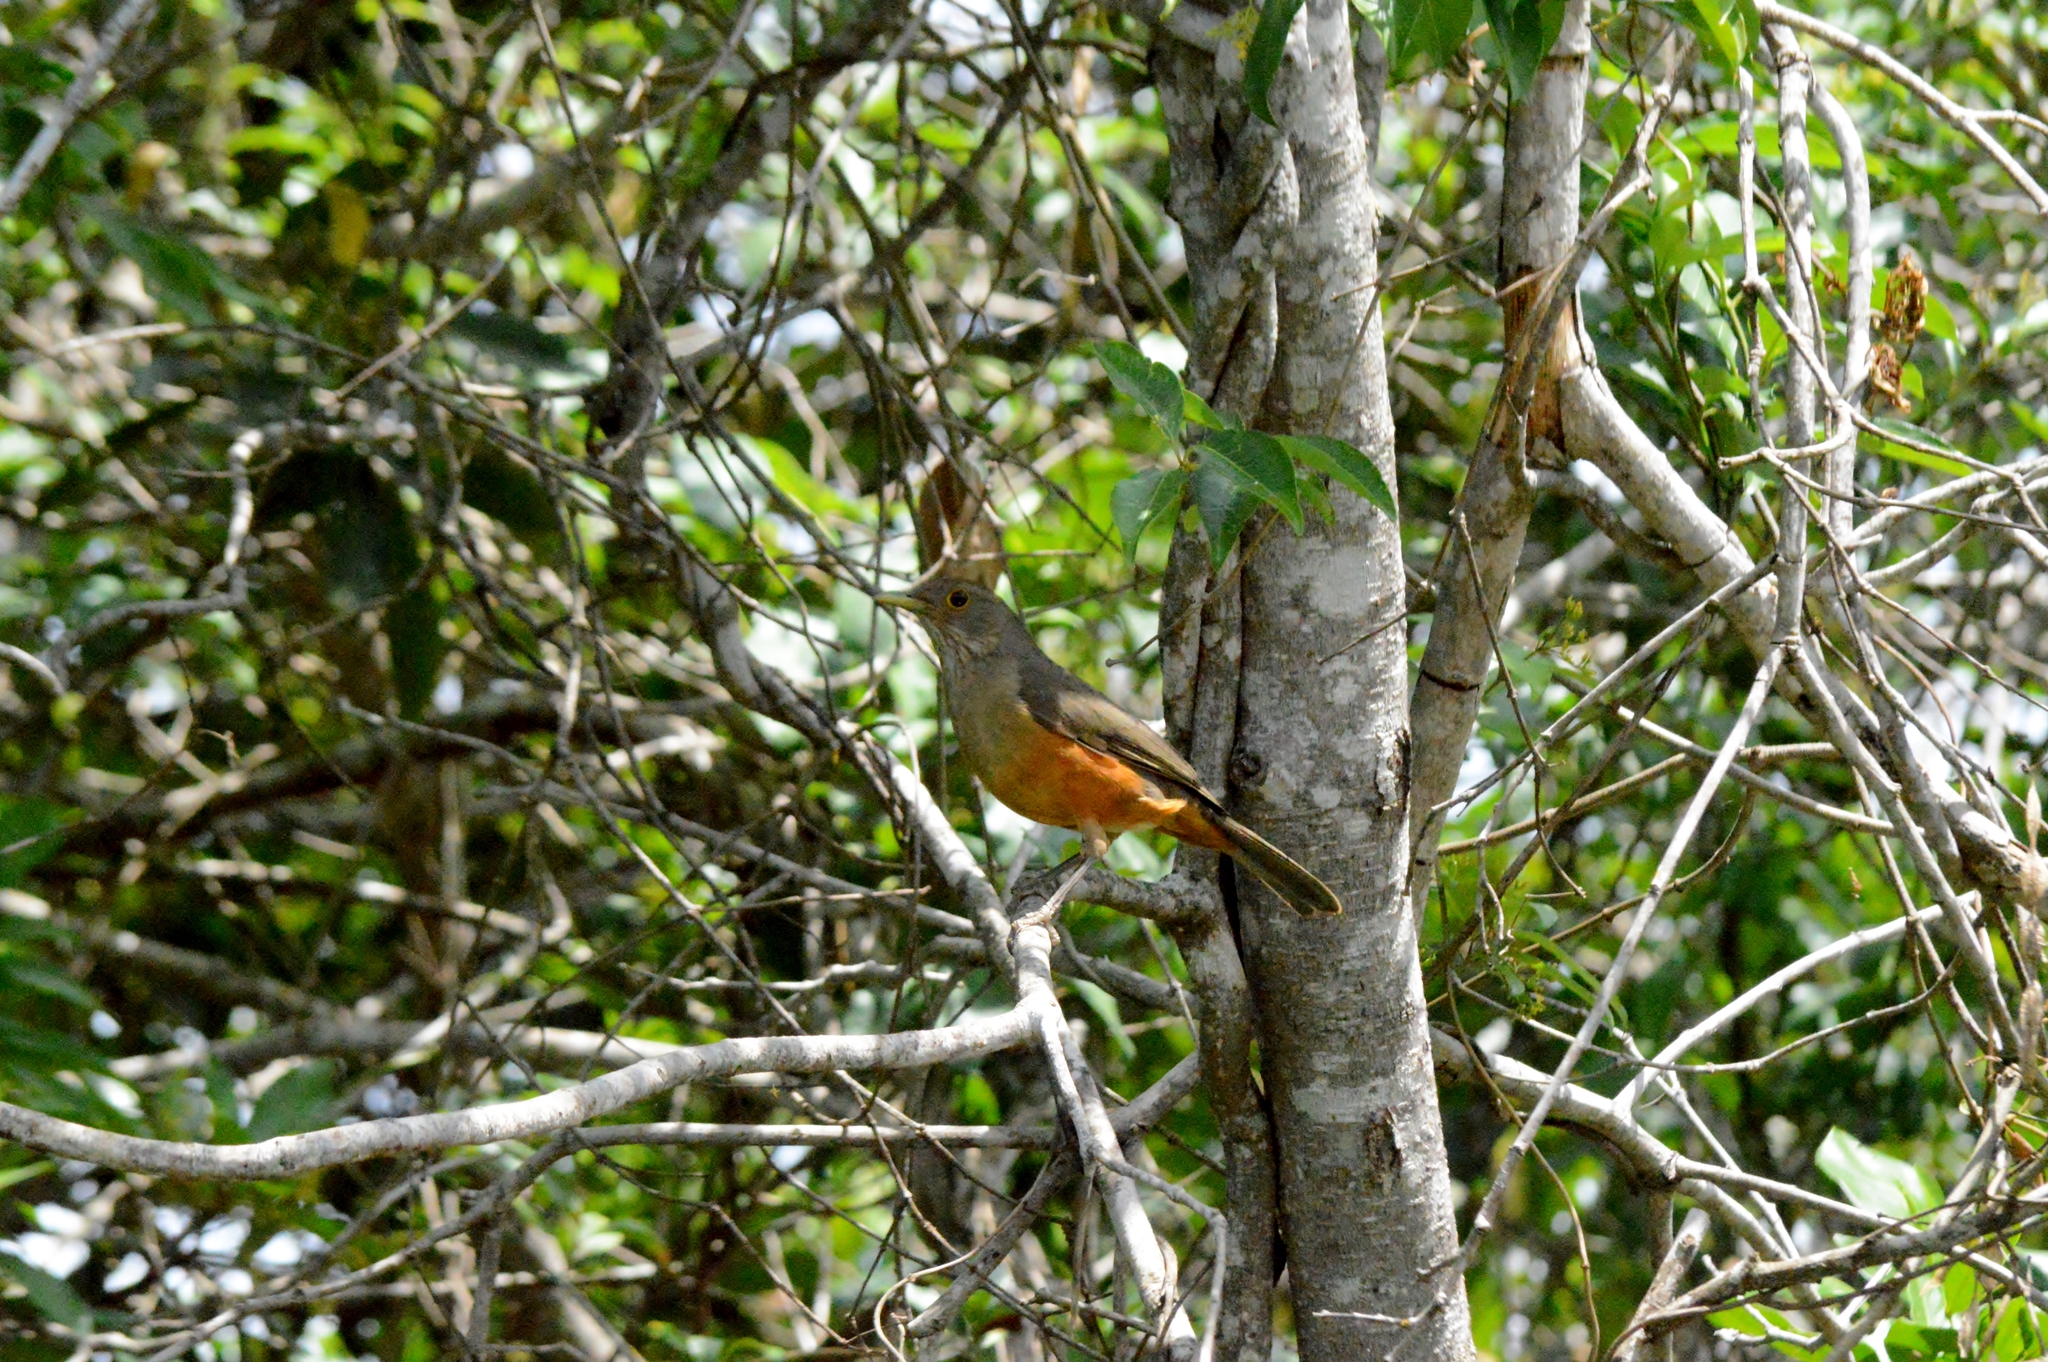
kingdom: Animalia
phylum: Chordata
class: Aves
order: Passeriformes
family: Turdidae
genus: Turdus
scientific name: Turdus rufiventris
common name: Rufous-bellied thrush
